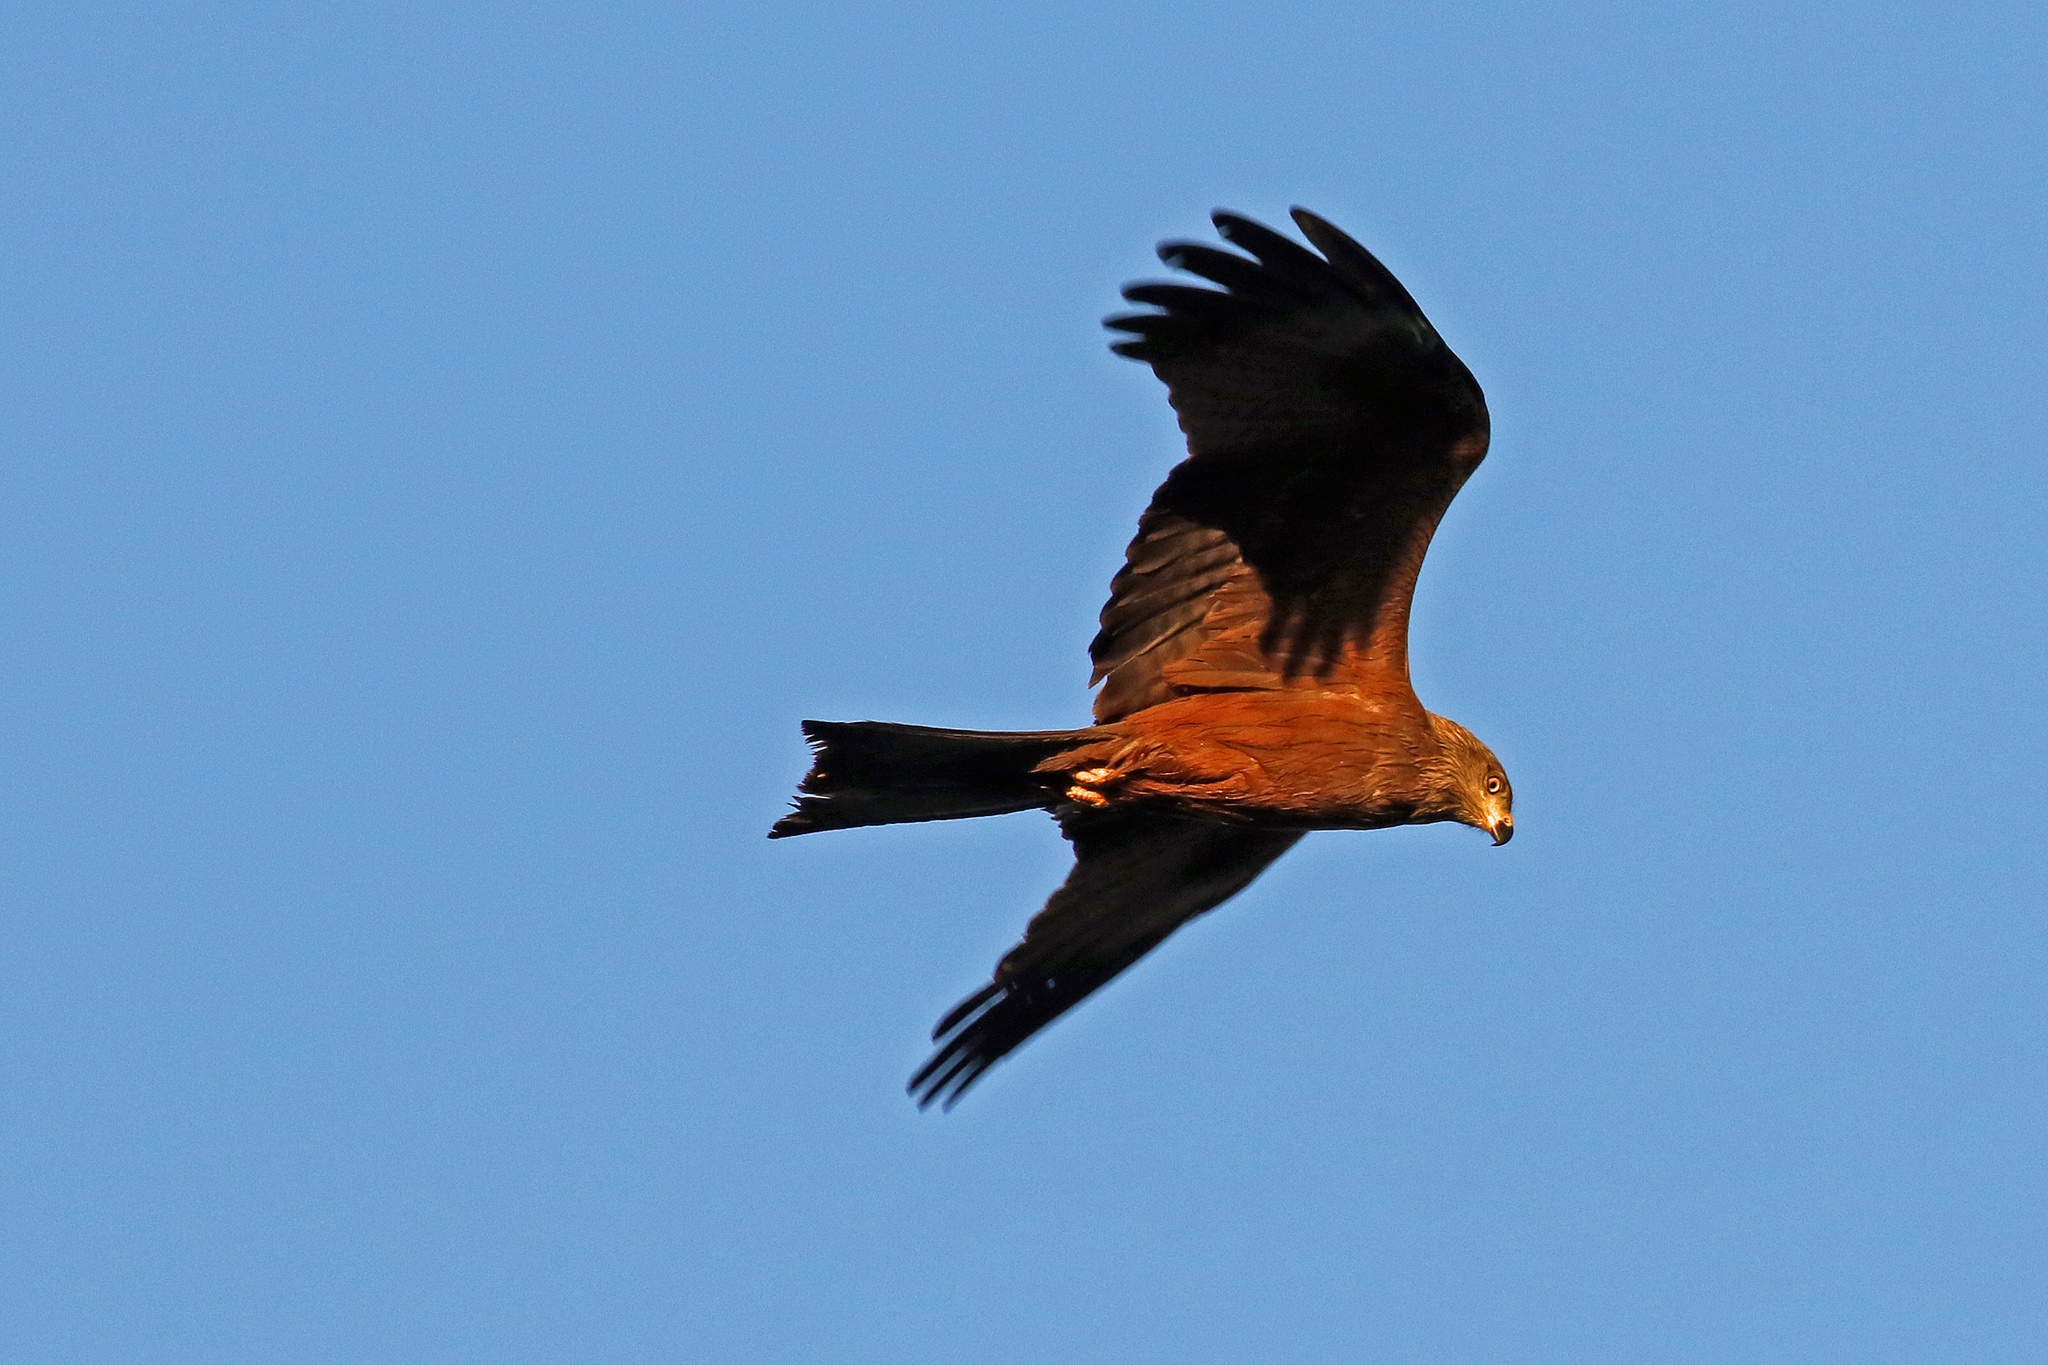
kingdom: Animalia
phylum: Chordata
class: Aves
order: Accipitriformes
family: Accipitridae
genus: Milvus
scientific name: Milvus migrans
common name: Black kite
